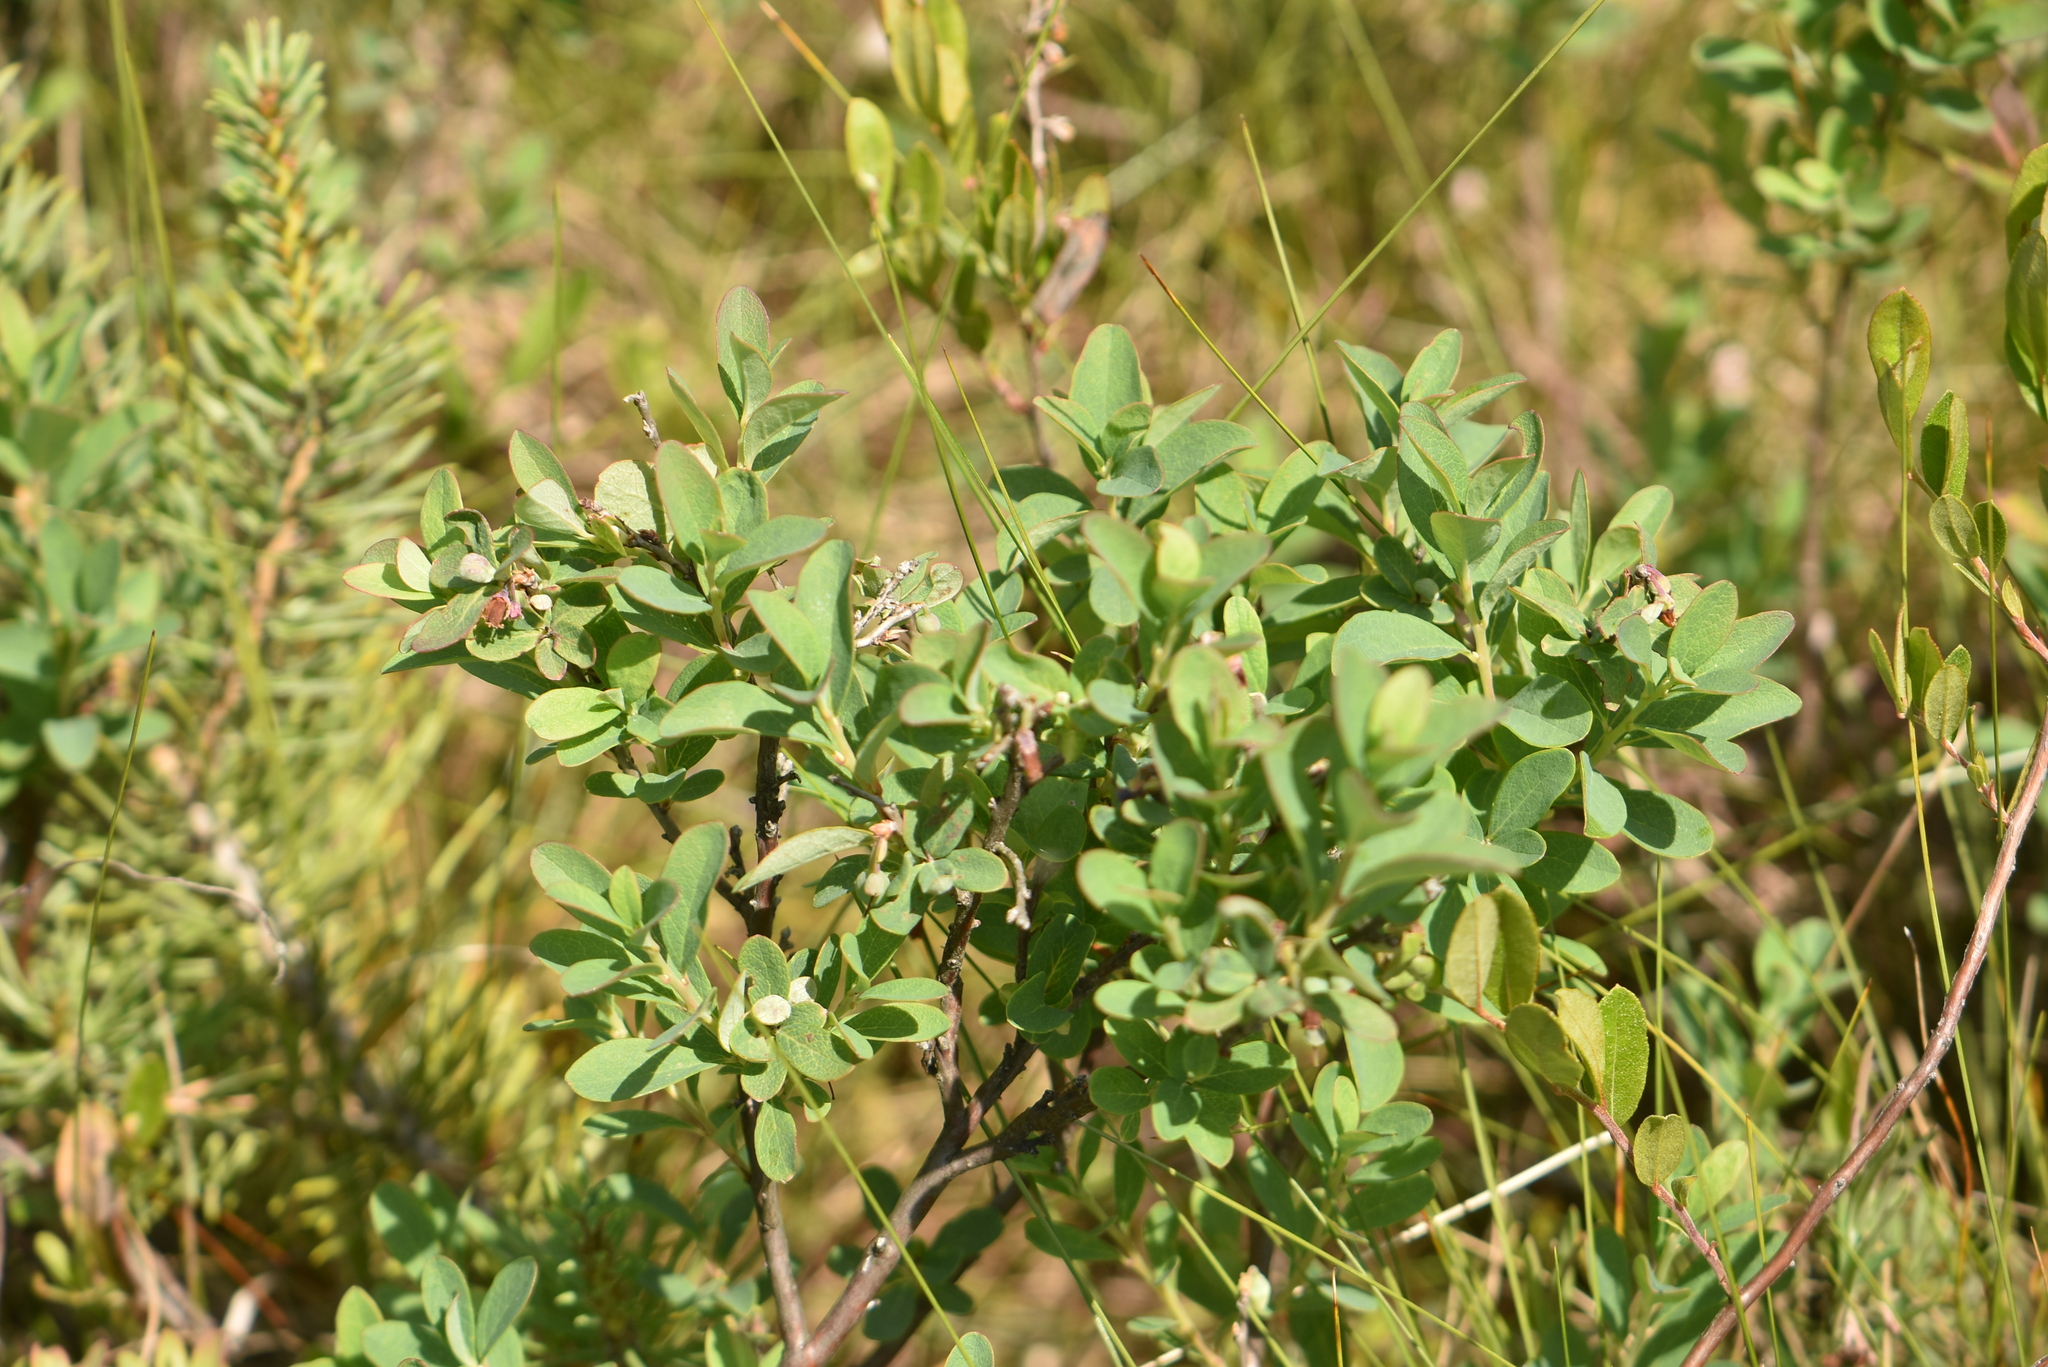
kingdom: Plantae
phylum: Tracheophyta
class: Magnoliopsida
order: Ericales
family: Ericaceae
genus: Vaccinium
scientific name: Vaccinium uliginosum
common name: Bog bilberry
